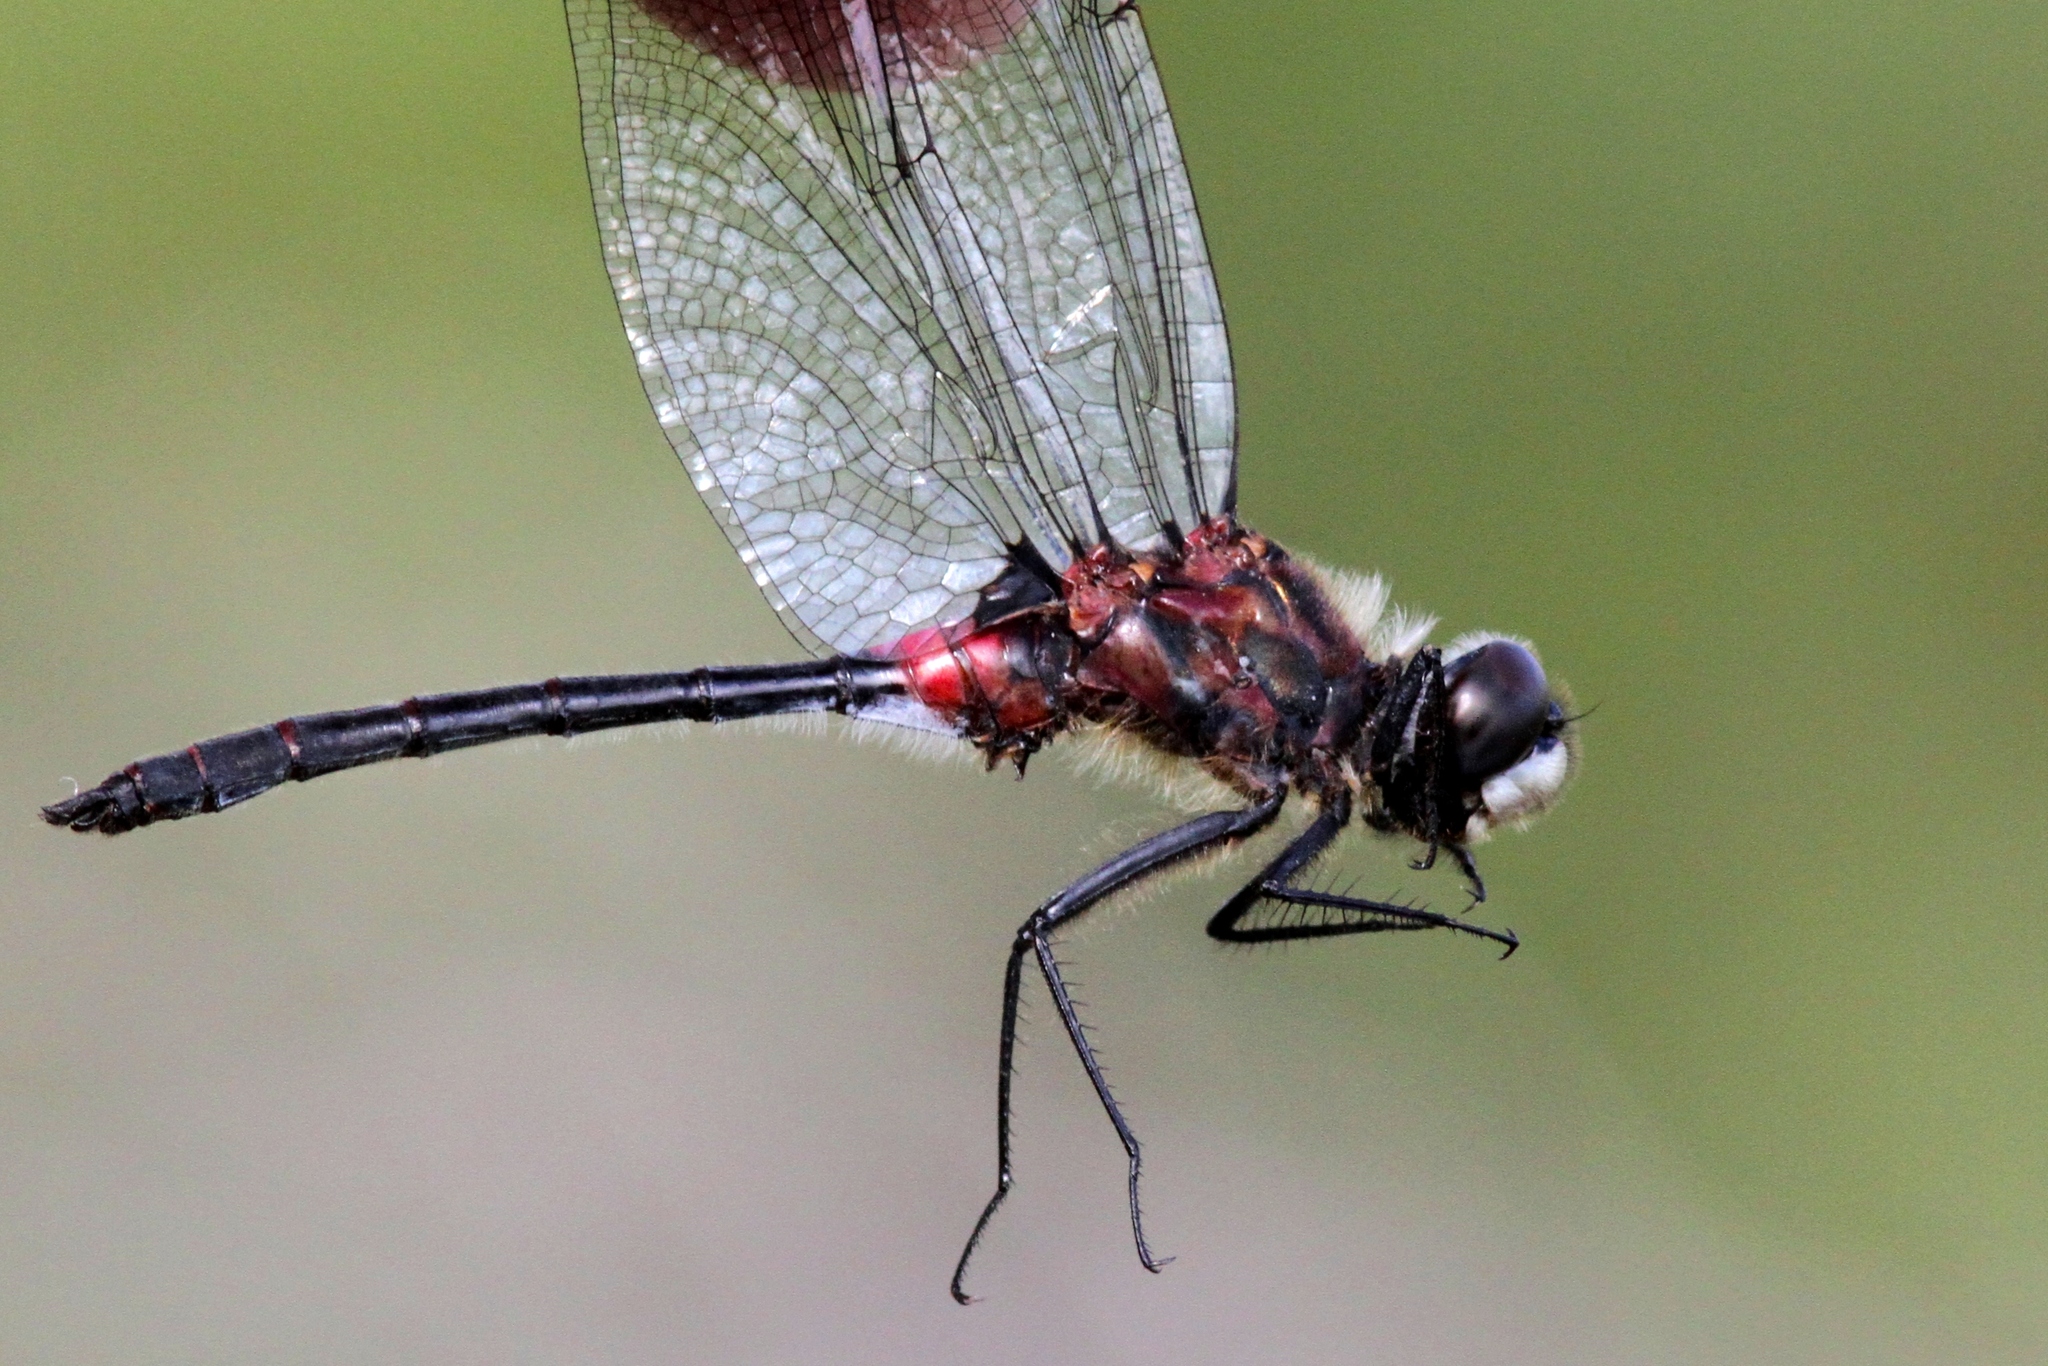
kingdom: Animalia
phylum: Arthropoda
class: Insecta
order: Odonata
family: Libellulidae
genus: Leucorrhinia
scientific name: Leucorrhinia glacialis
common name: Crimson-ringed whiteface
